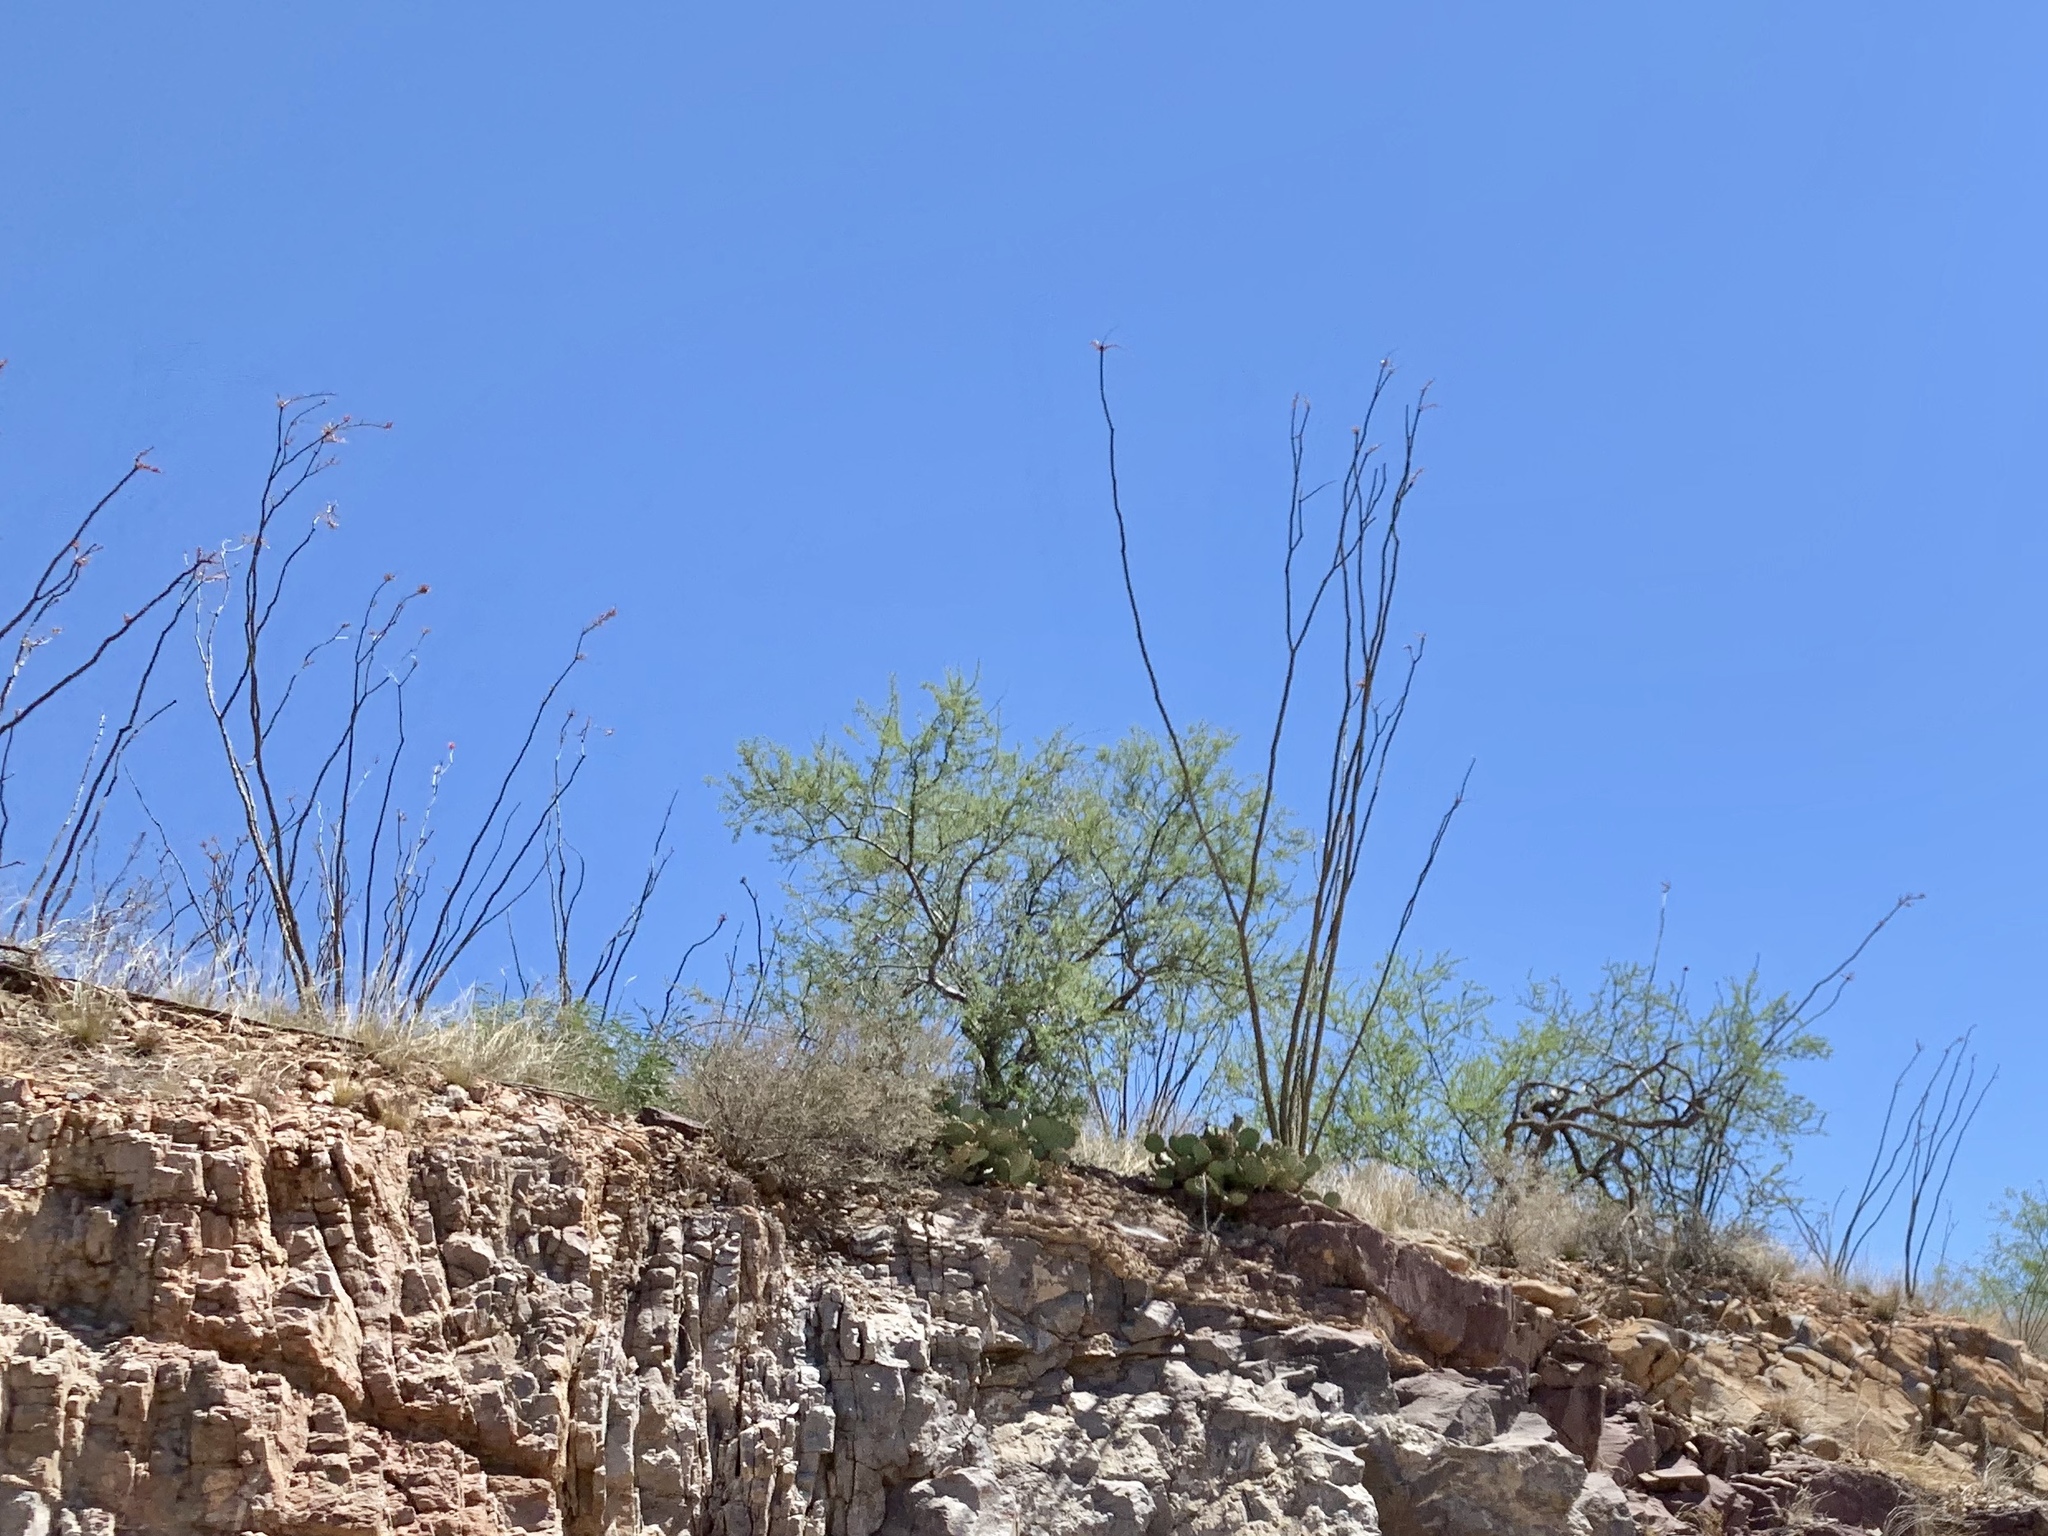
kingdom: Plantae
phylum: Tracheophyta
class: Magnoliopsida
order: Ericales
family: Fouquieriaceae
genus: Fouquieria
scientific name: Fouquieria splendens
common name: Vine-cactus
